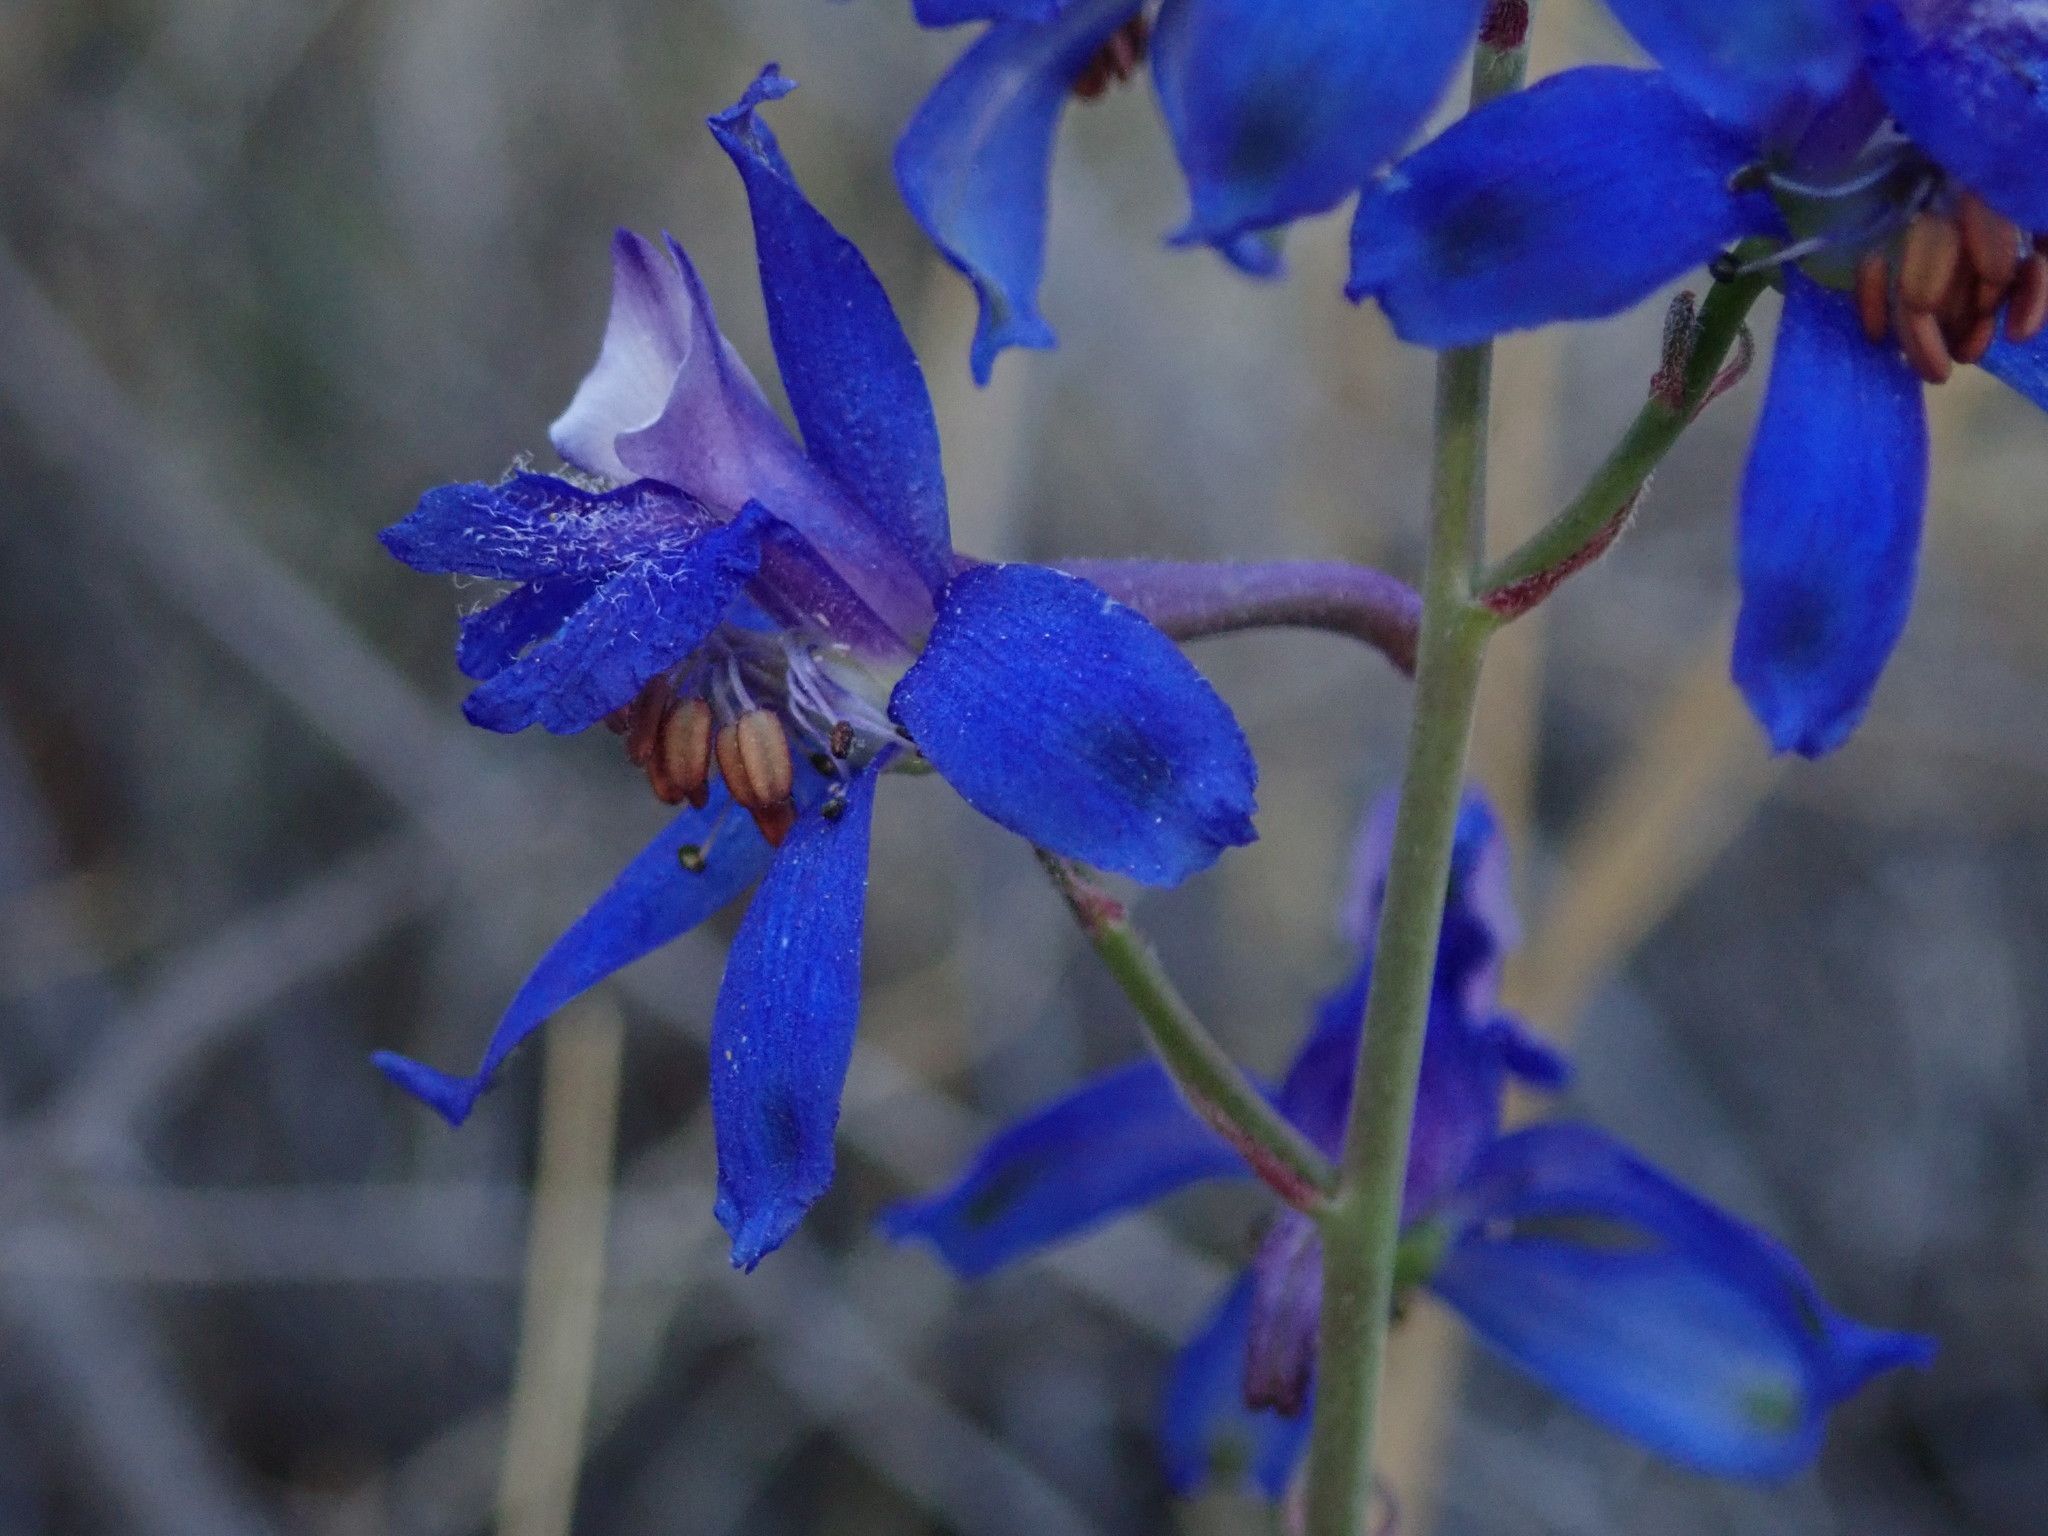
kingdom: Plantae
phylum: Tracheophyta
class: Magnoliopsida
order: Ranunculales
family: Ranunculaceae
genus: Delphinium
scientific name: Delphinium scaposum
